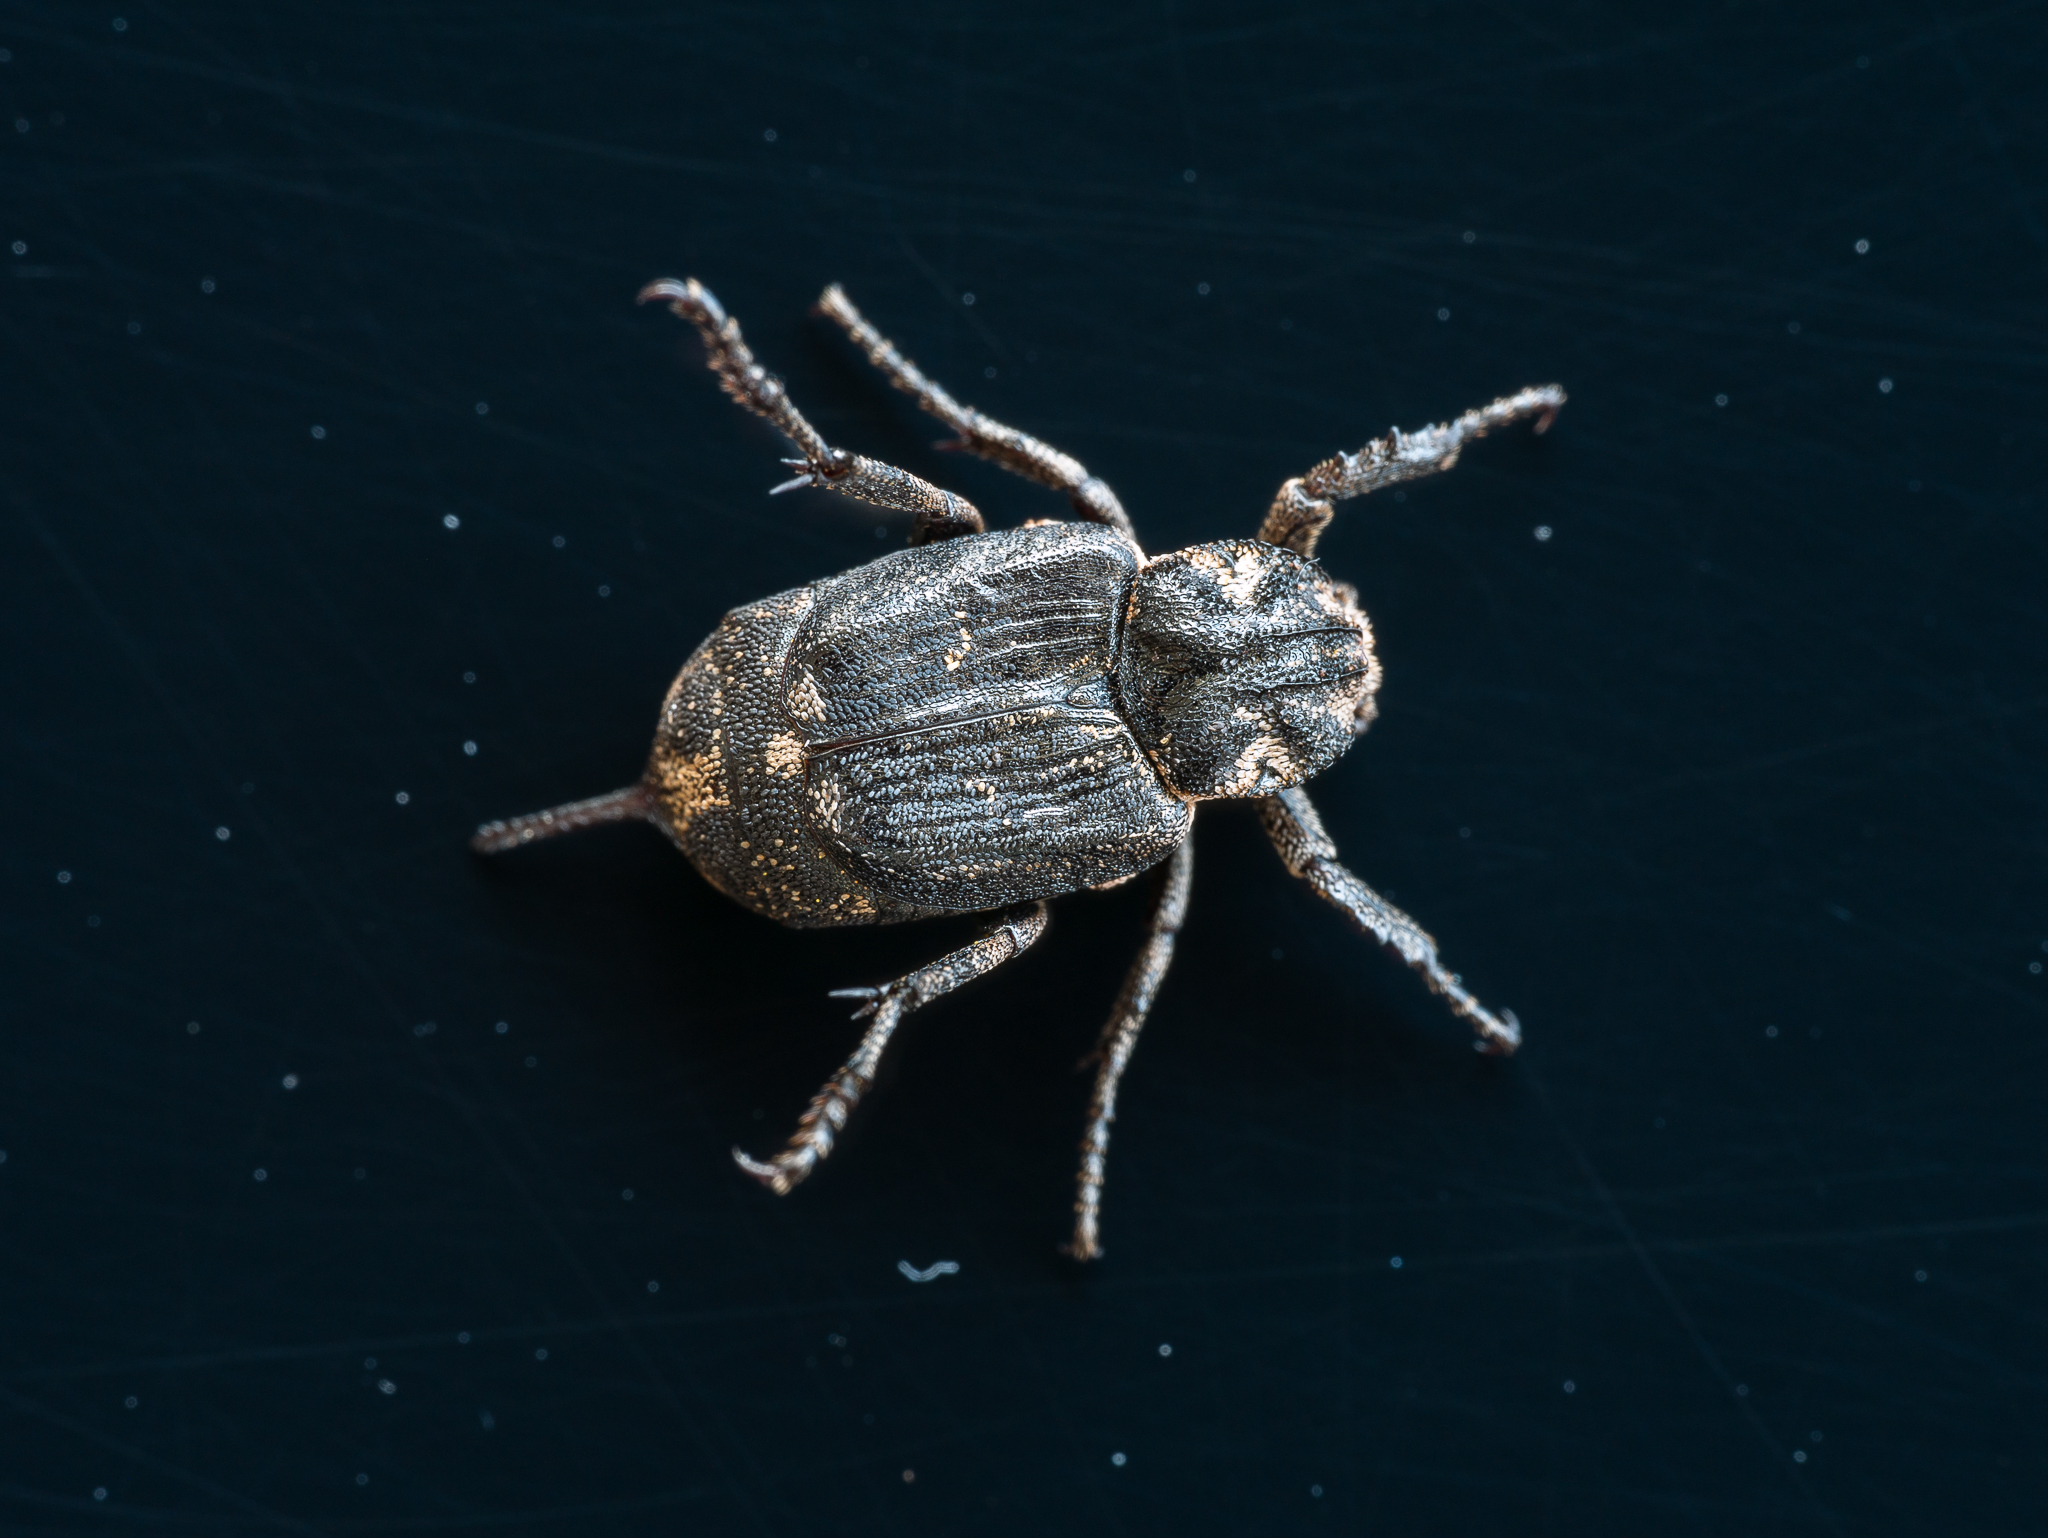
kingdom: Animalia
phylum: Arthropoda
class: Insecta
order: Coleoptera
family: Scarabaeidae
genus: Valgus
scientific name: Valgus hemipterus
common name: Bug flower chafer
